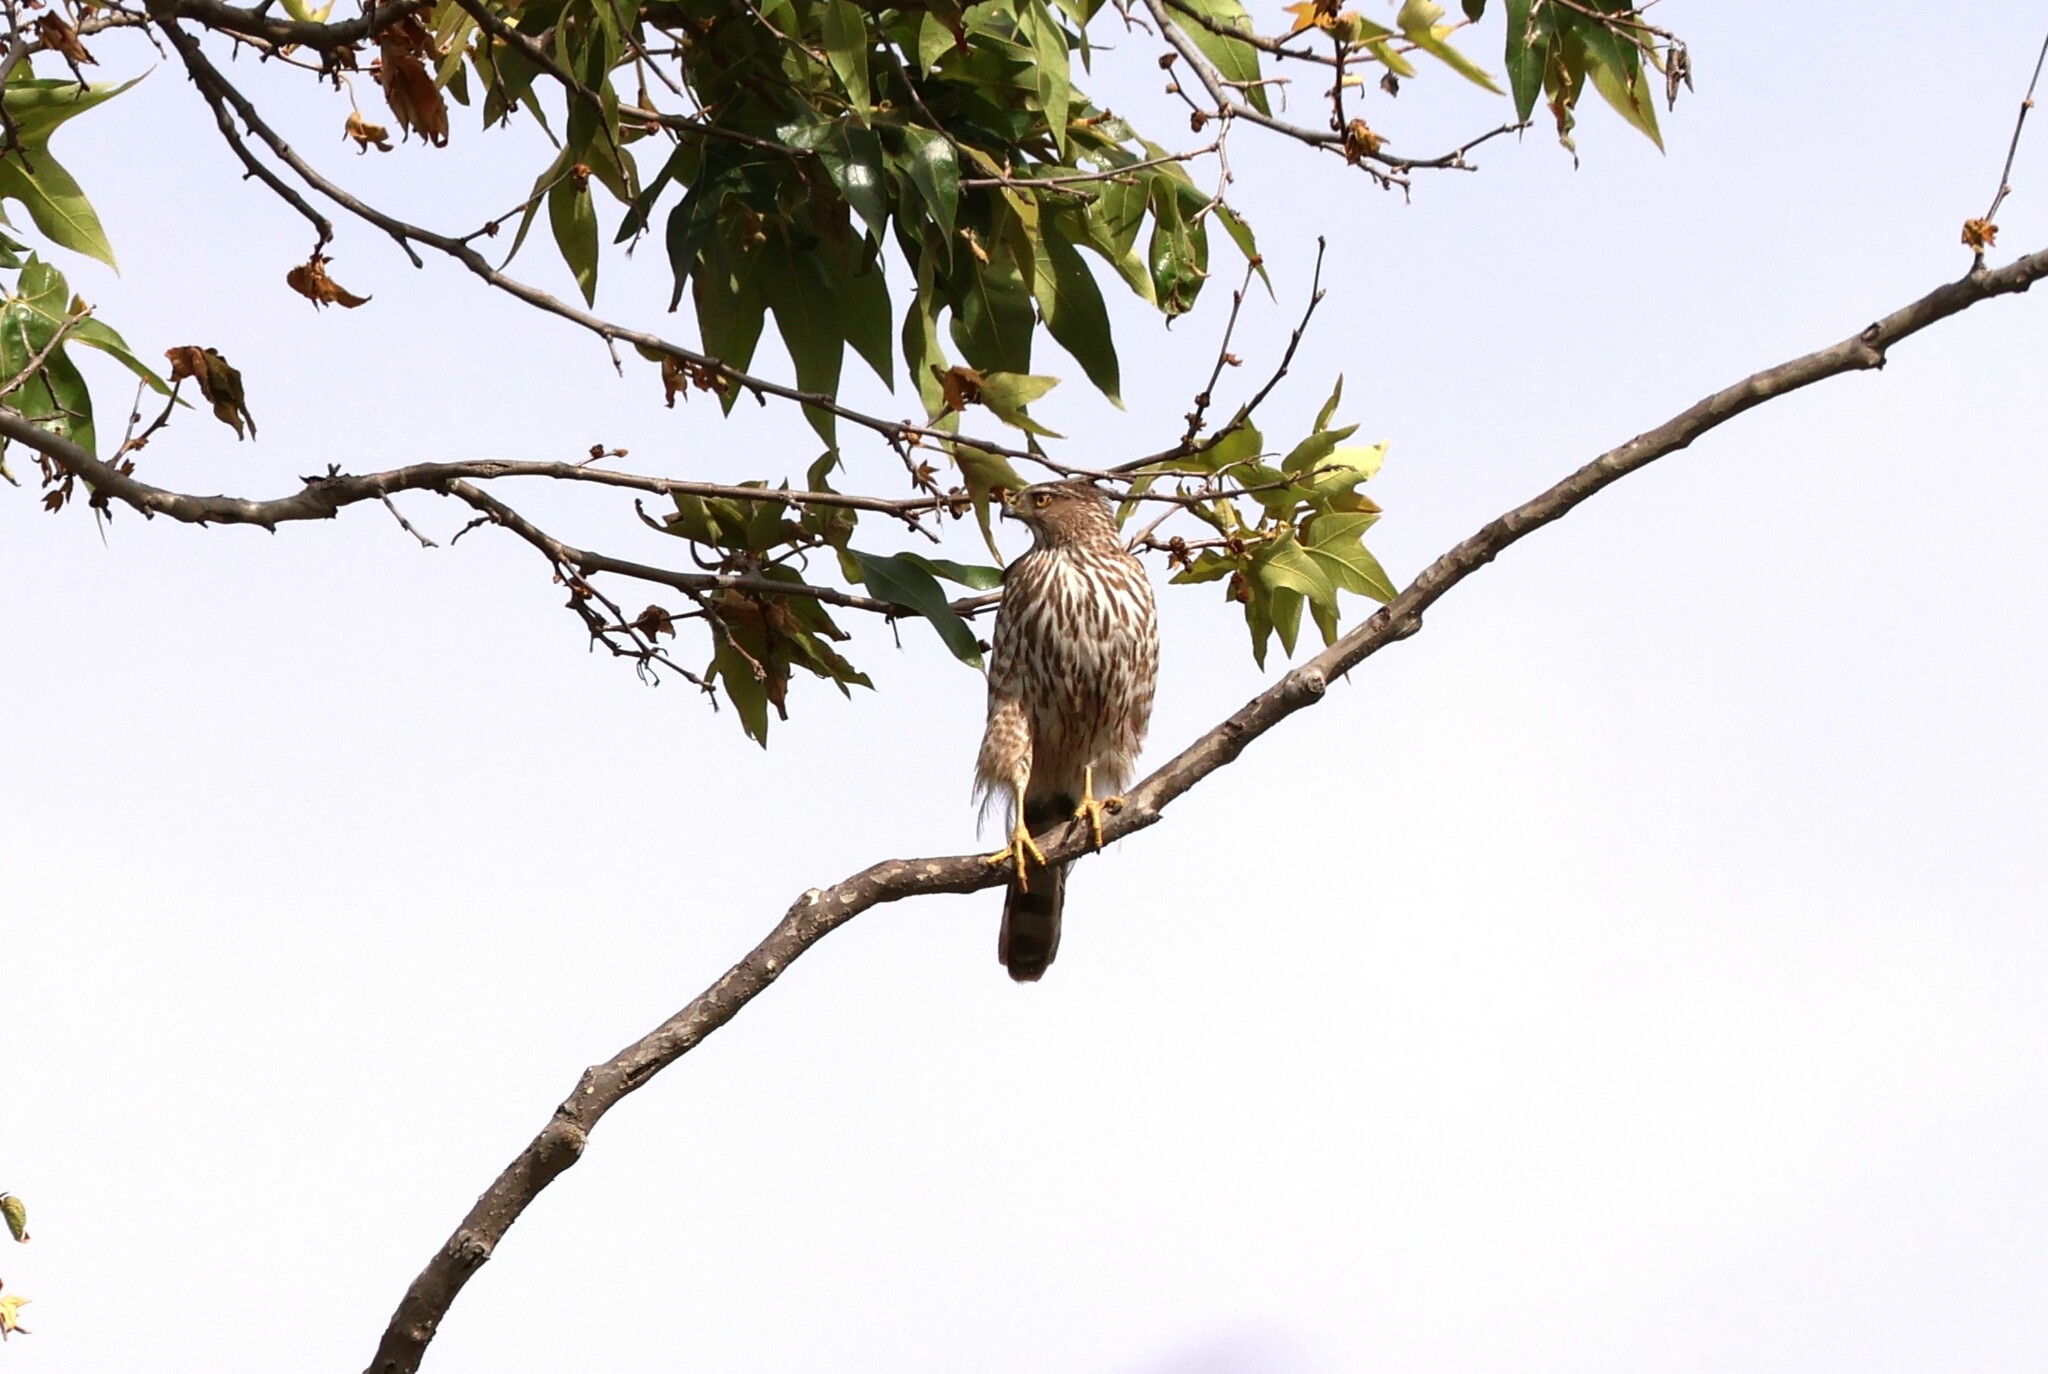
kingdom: Animalia
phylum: Chordata
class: Aves
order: Accipitriformes
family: Accipitridae
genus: Accipiter
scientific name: Accipiter cooperii
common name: Cooper's hawk
